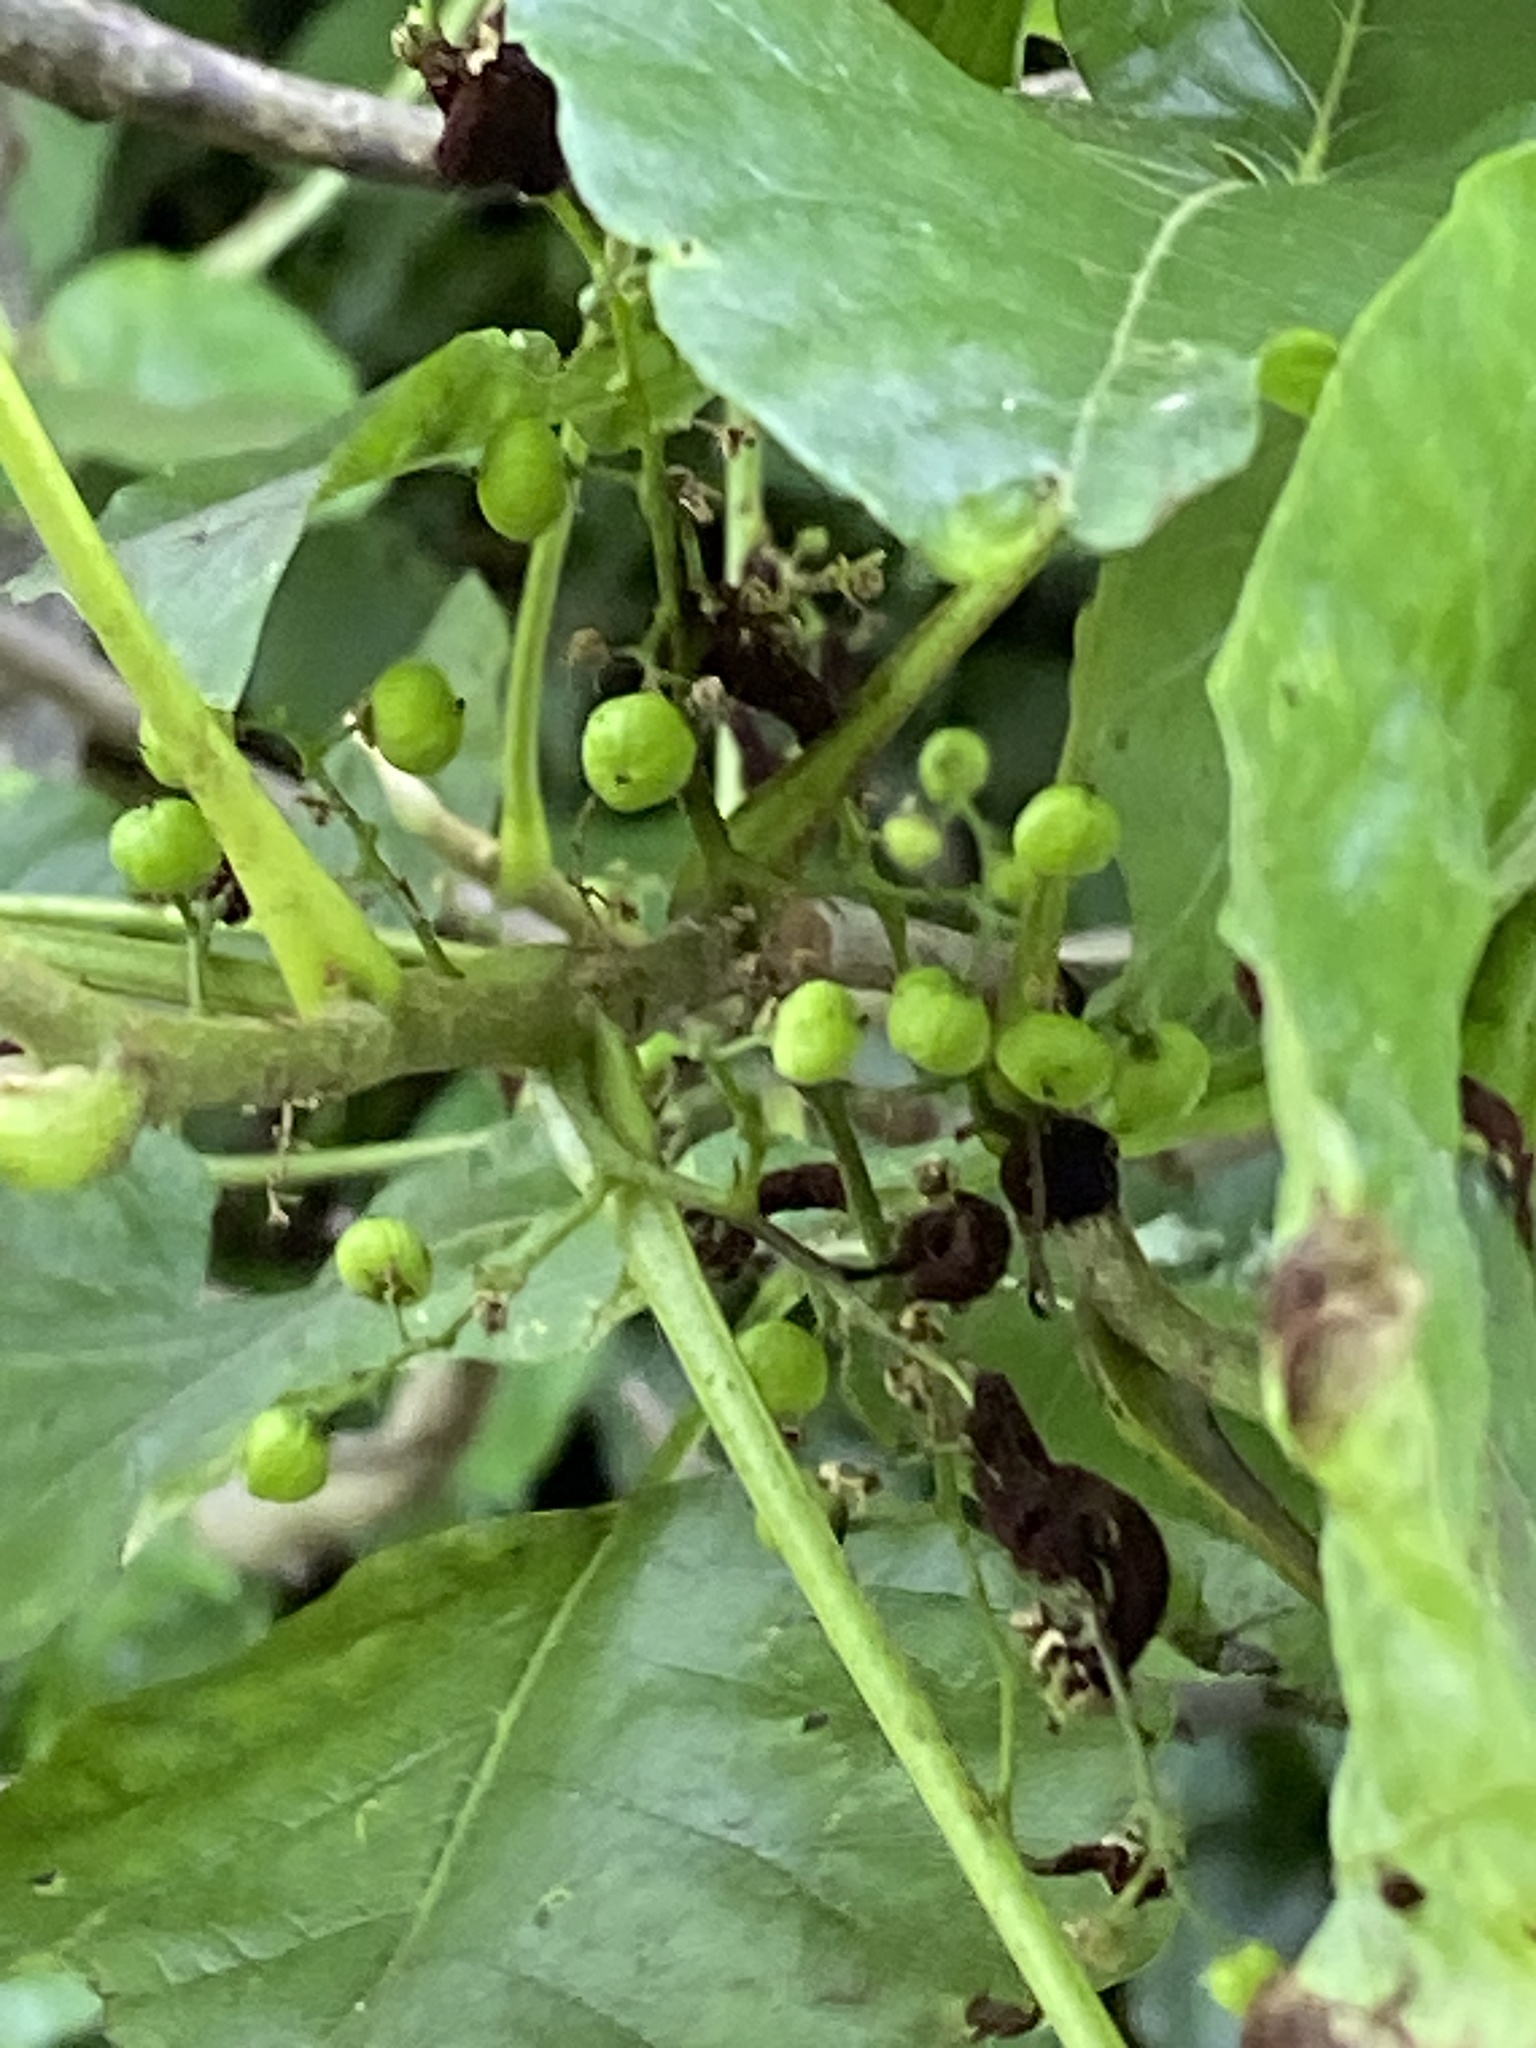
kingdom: Plantae
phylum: Tracheophyta
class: Magnoliopsida
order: Sapindales
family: Anacardiaceae
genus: Toxicodendron
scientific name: Toxicodendron radicans
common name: Poison ivy
